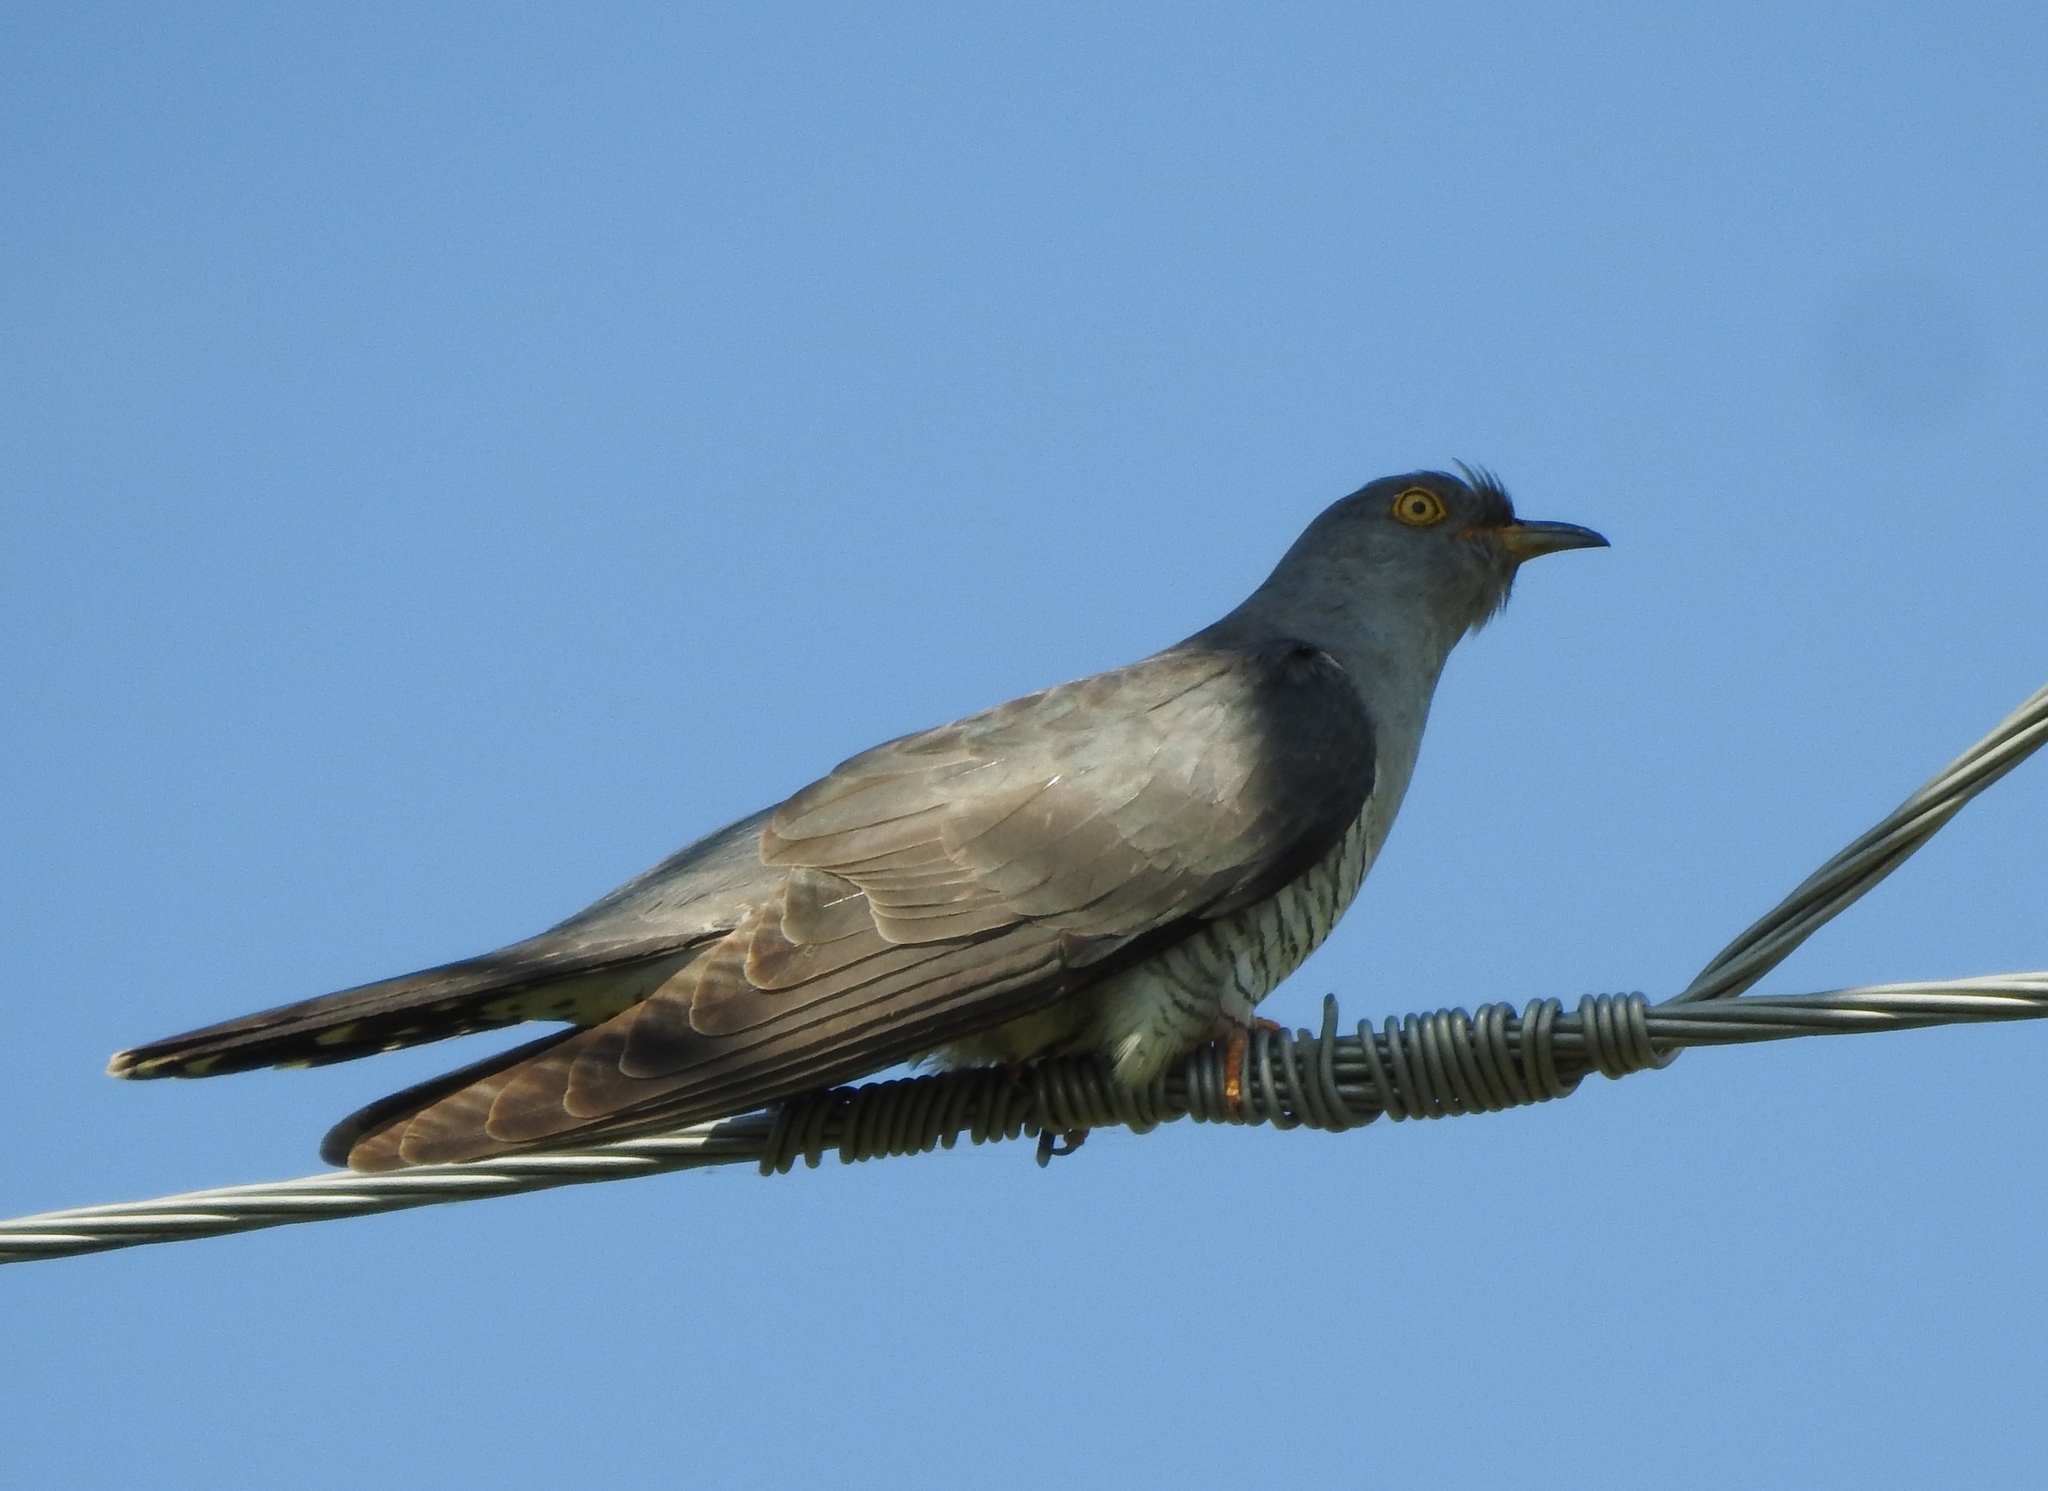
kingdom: Animalia
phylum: Chordata
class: Aves
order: Cuculiformes
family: Cuculidae
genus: Cuculus
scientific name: Cuculus canorus
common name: Common cuckoo
